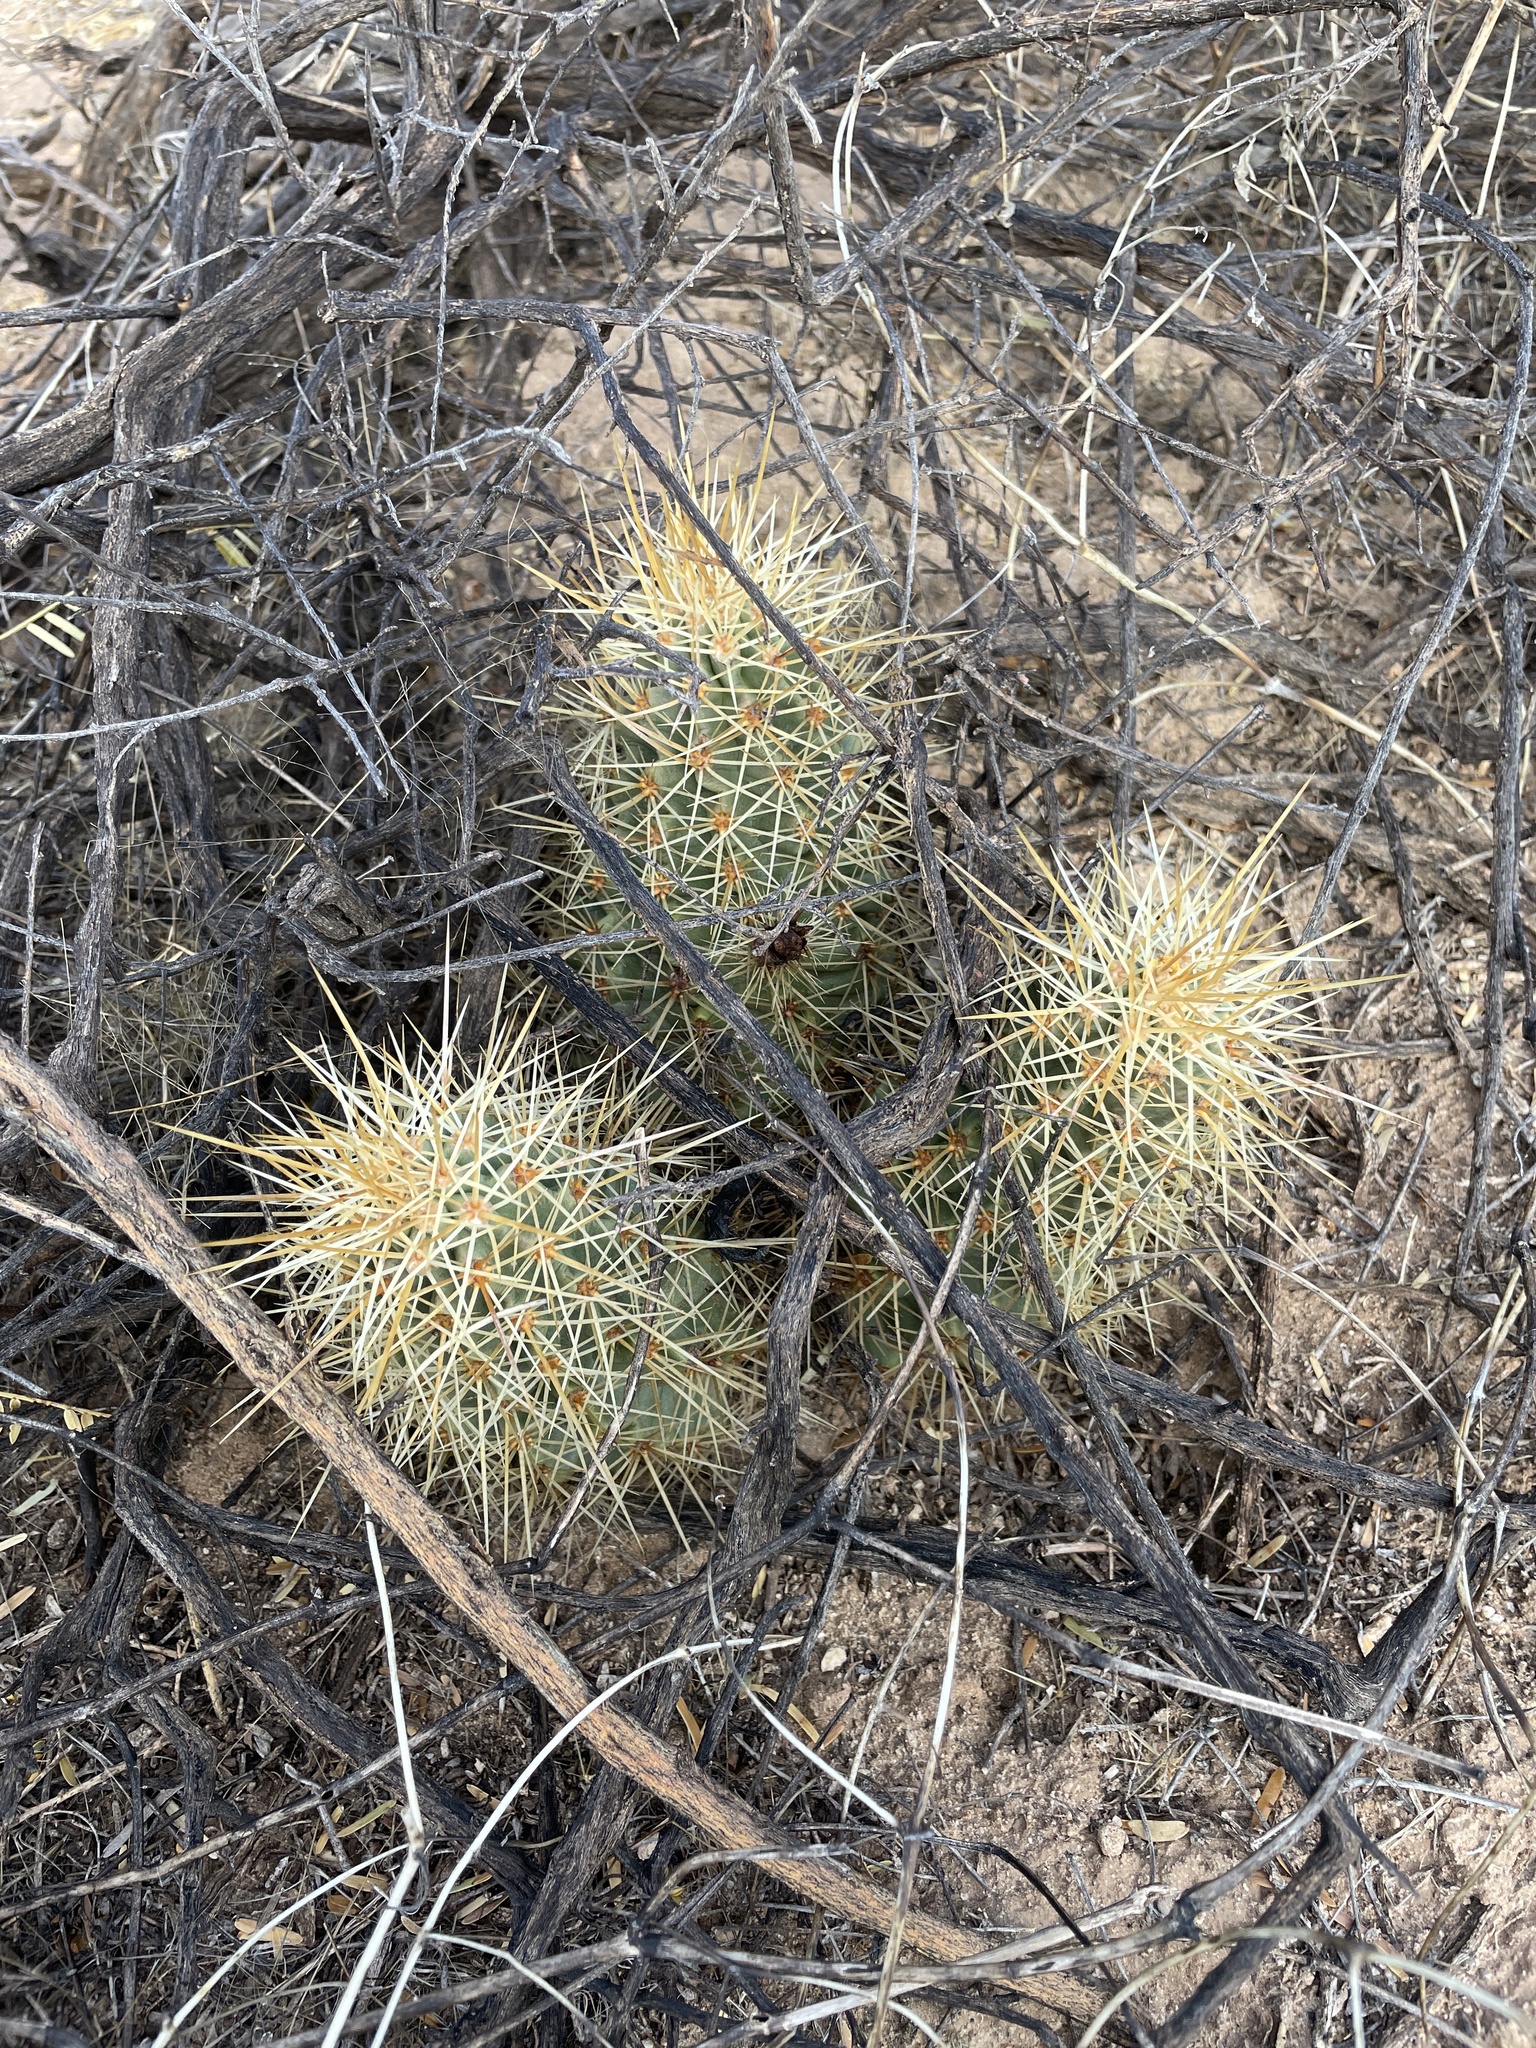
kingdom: Plantae
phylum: Tracheophyta
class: Magnoliopsida
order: Caryophyllales
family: Cactaceae
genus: Echinocereus
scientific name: Echinocereus coccineus
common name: Scarlet hedgehog cactus
